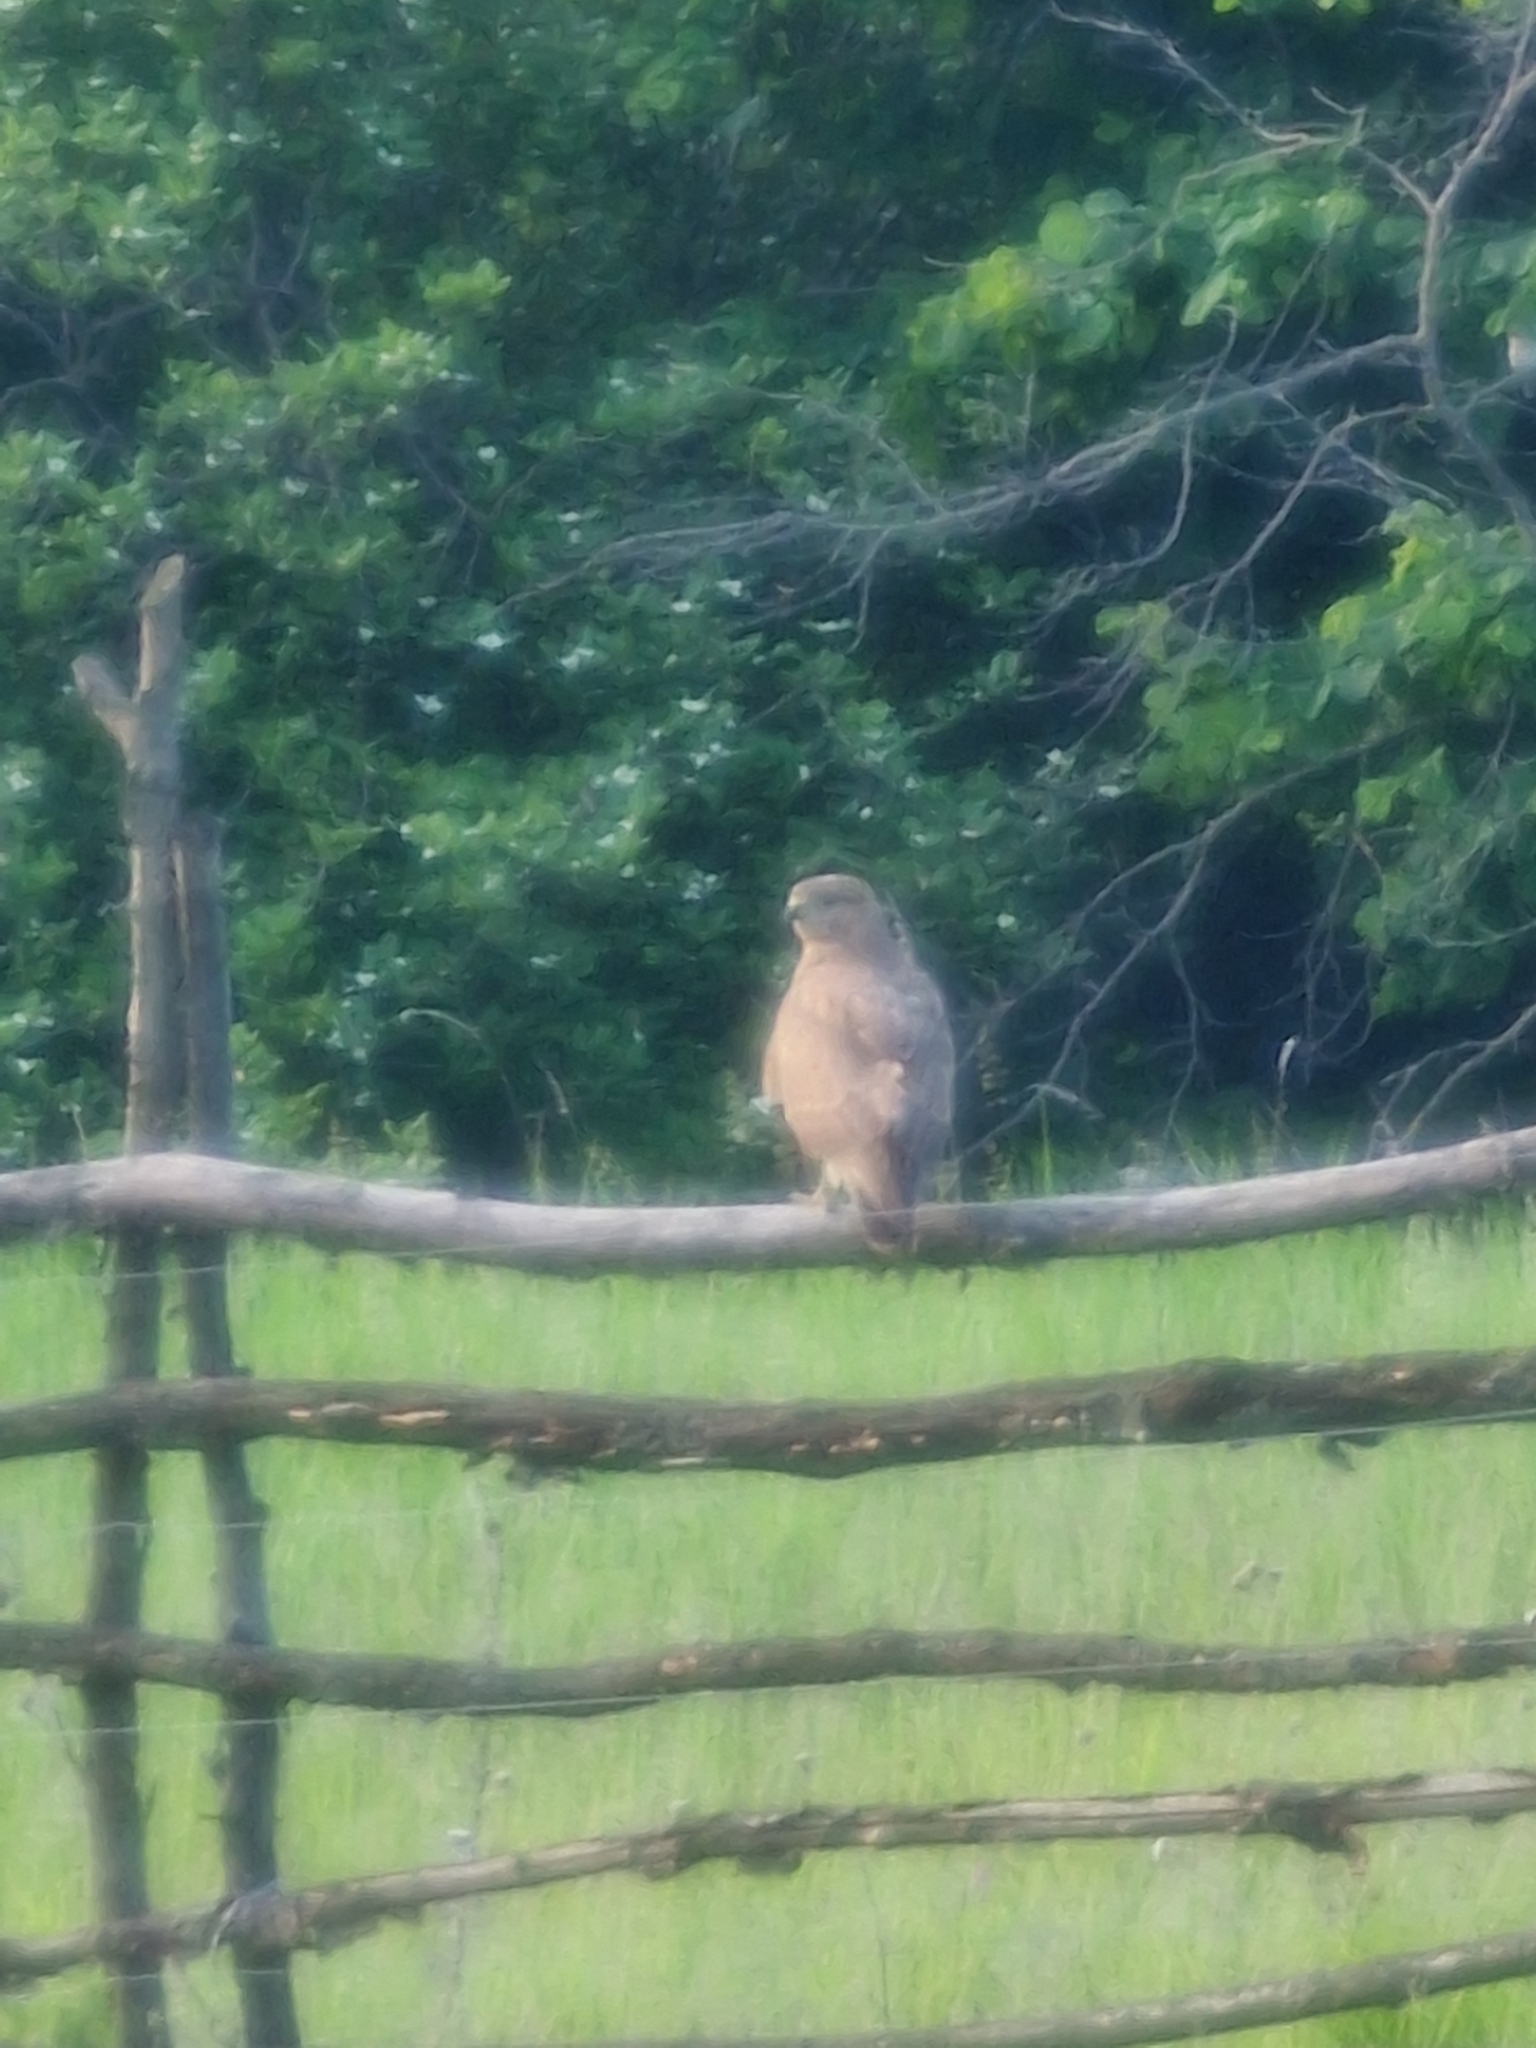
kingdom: Animalia
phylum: Chordata
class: Aves
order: Accipitriformes
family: Accipitridae
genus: Buteo
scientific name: Buteo buteo
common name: Common buzzard
